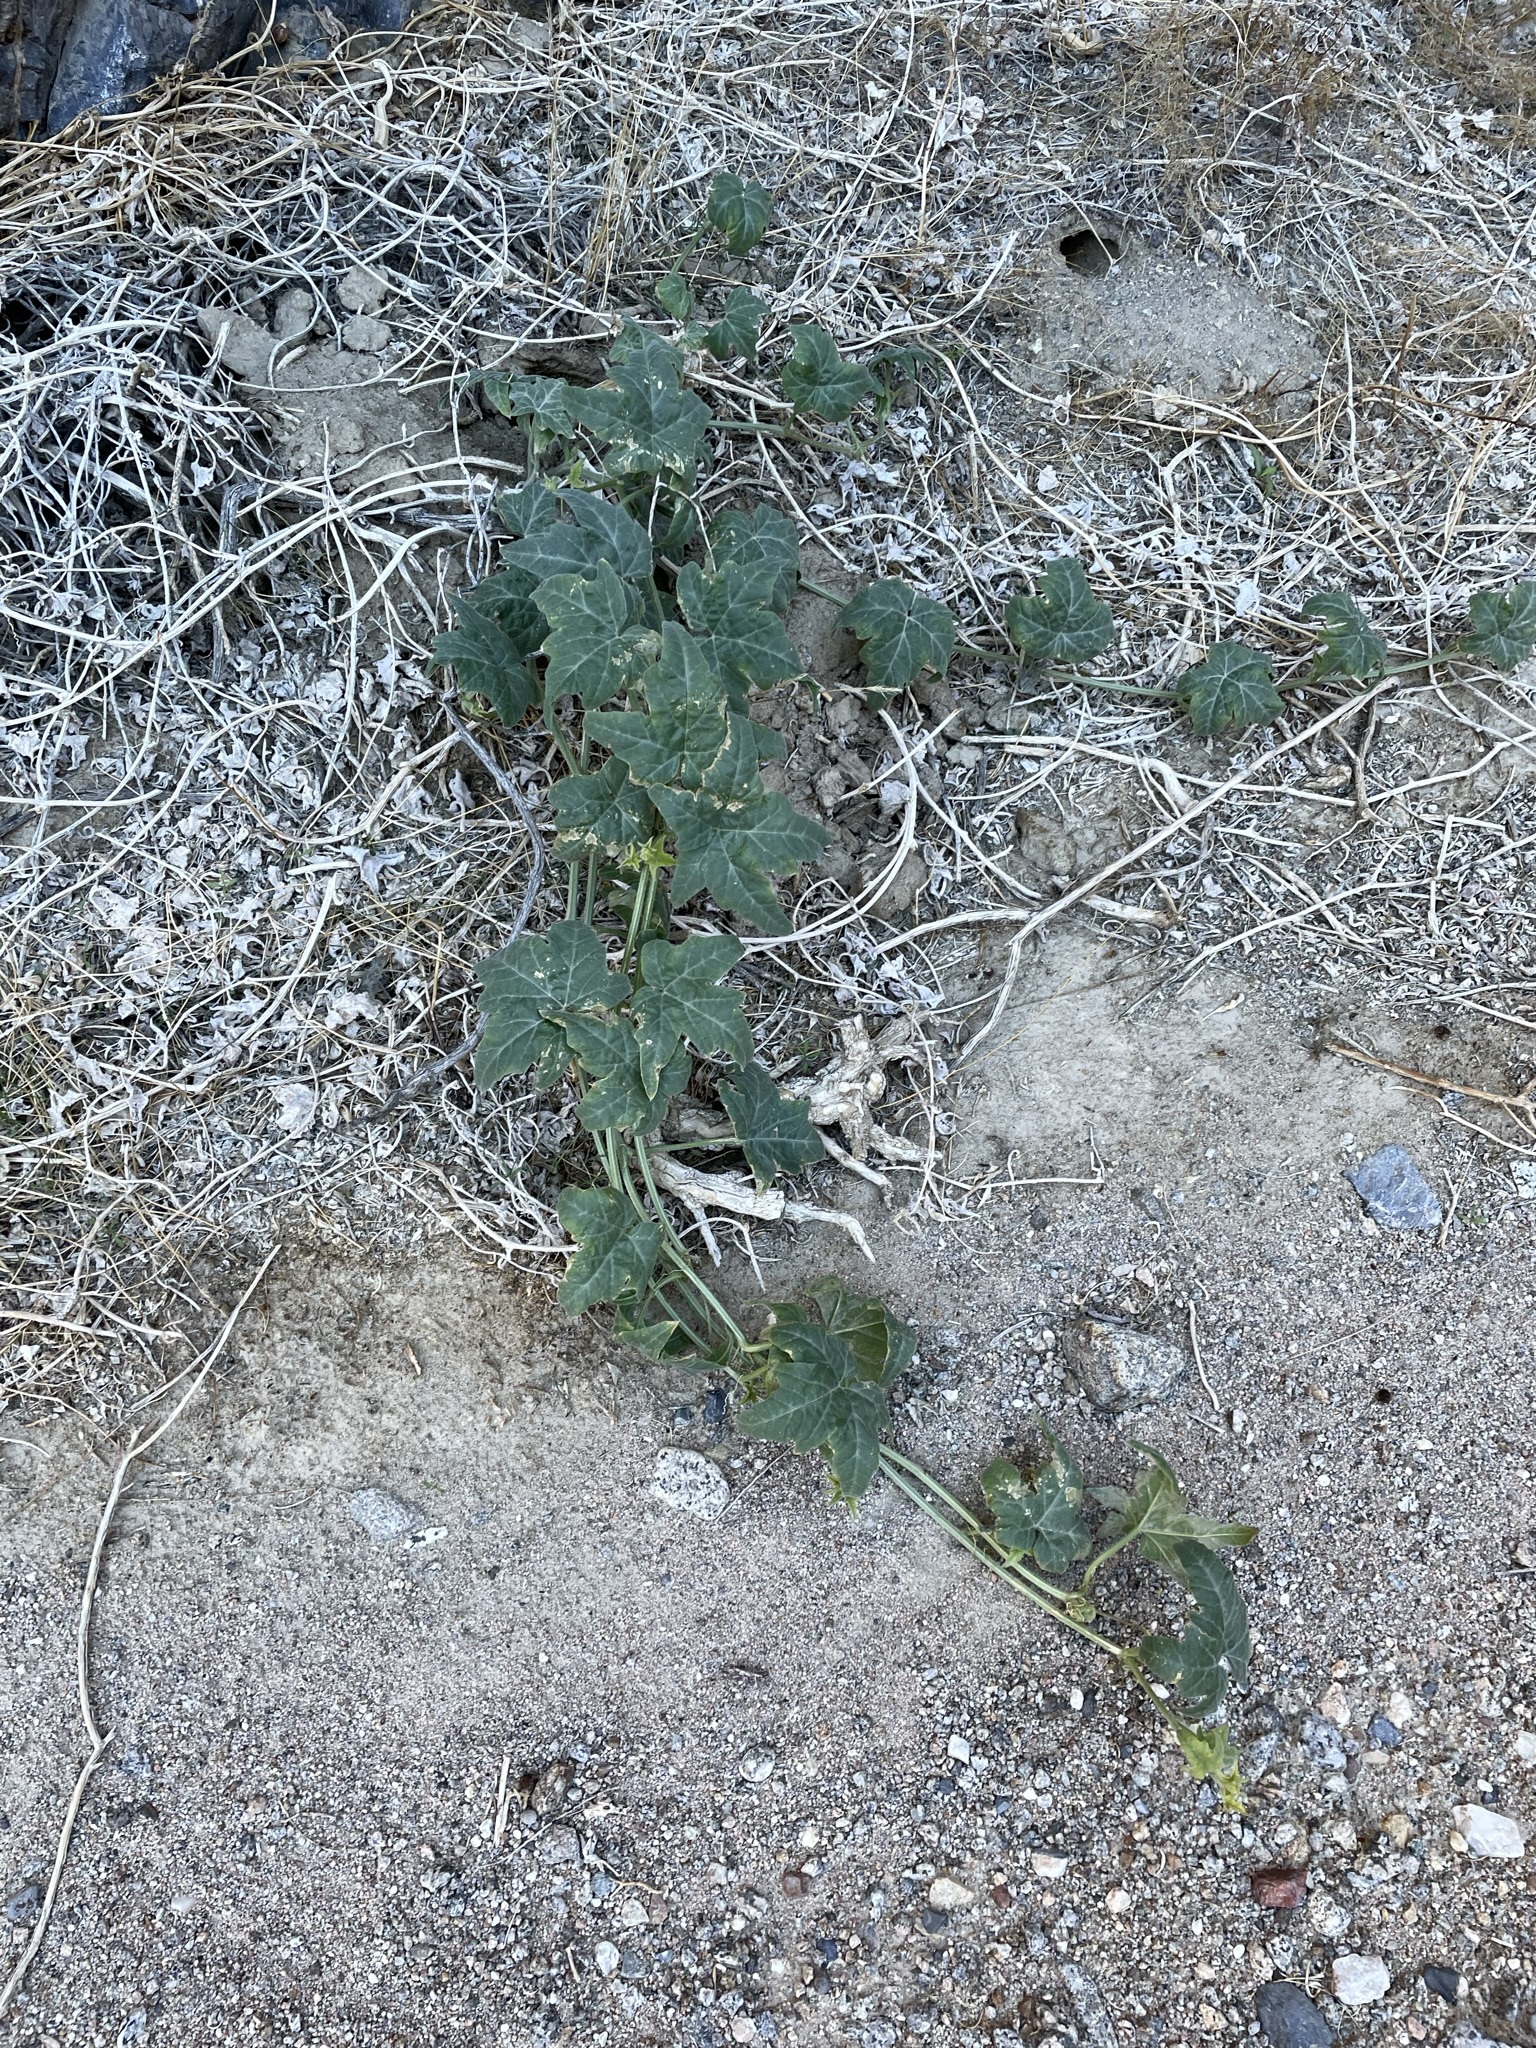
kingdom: Plantae
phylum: Tracheophyta
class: Magnoliopsida
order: Cucurbitales
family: Cucurbitaceae
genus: Cucurbita
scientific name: Cucurbita palmata
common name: Coyote-melon
